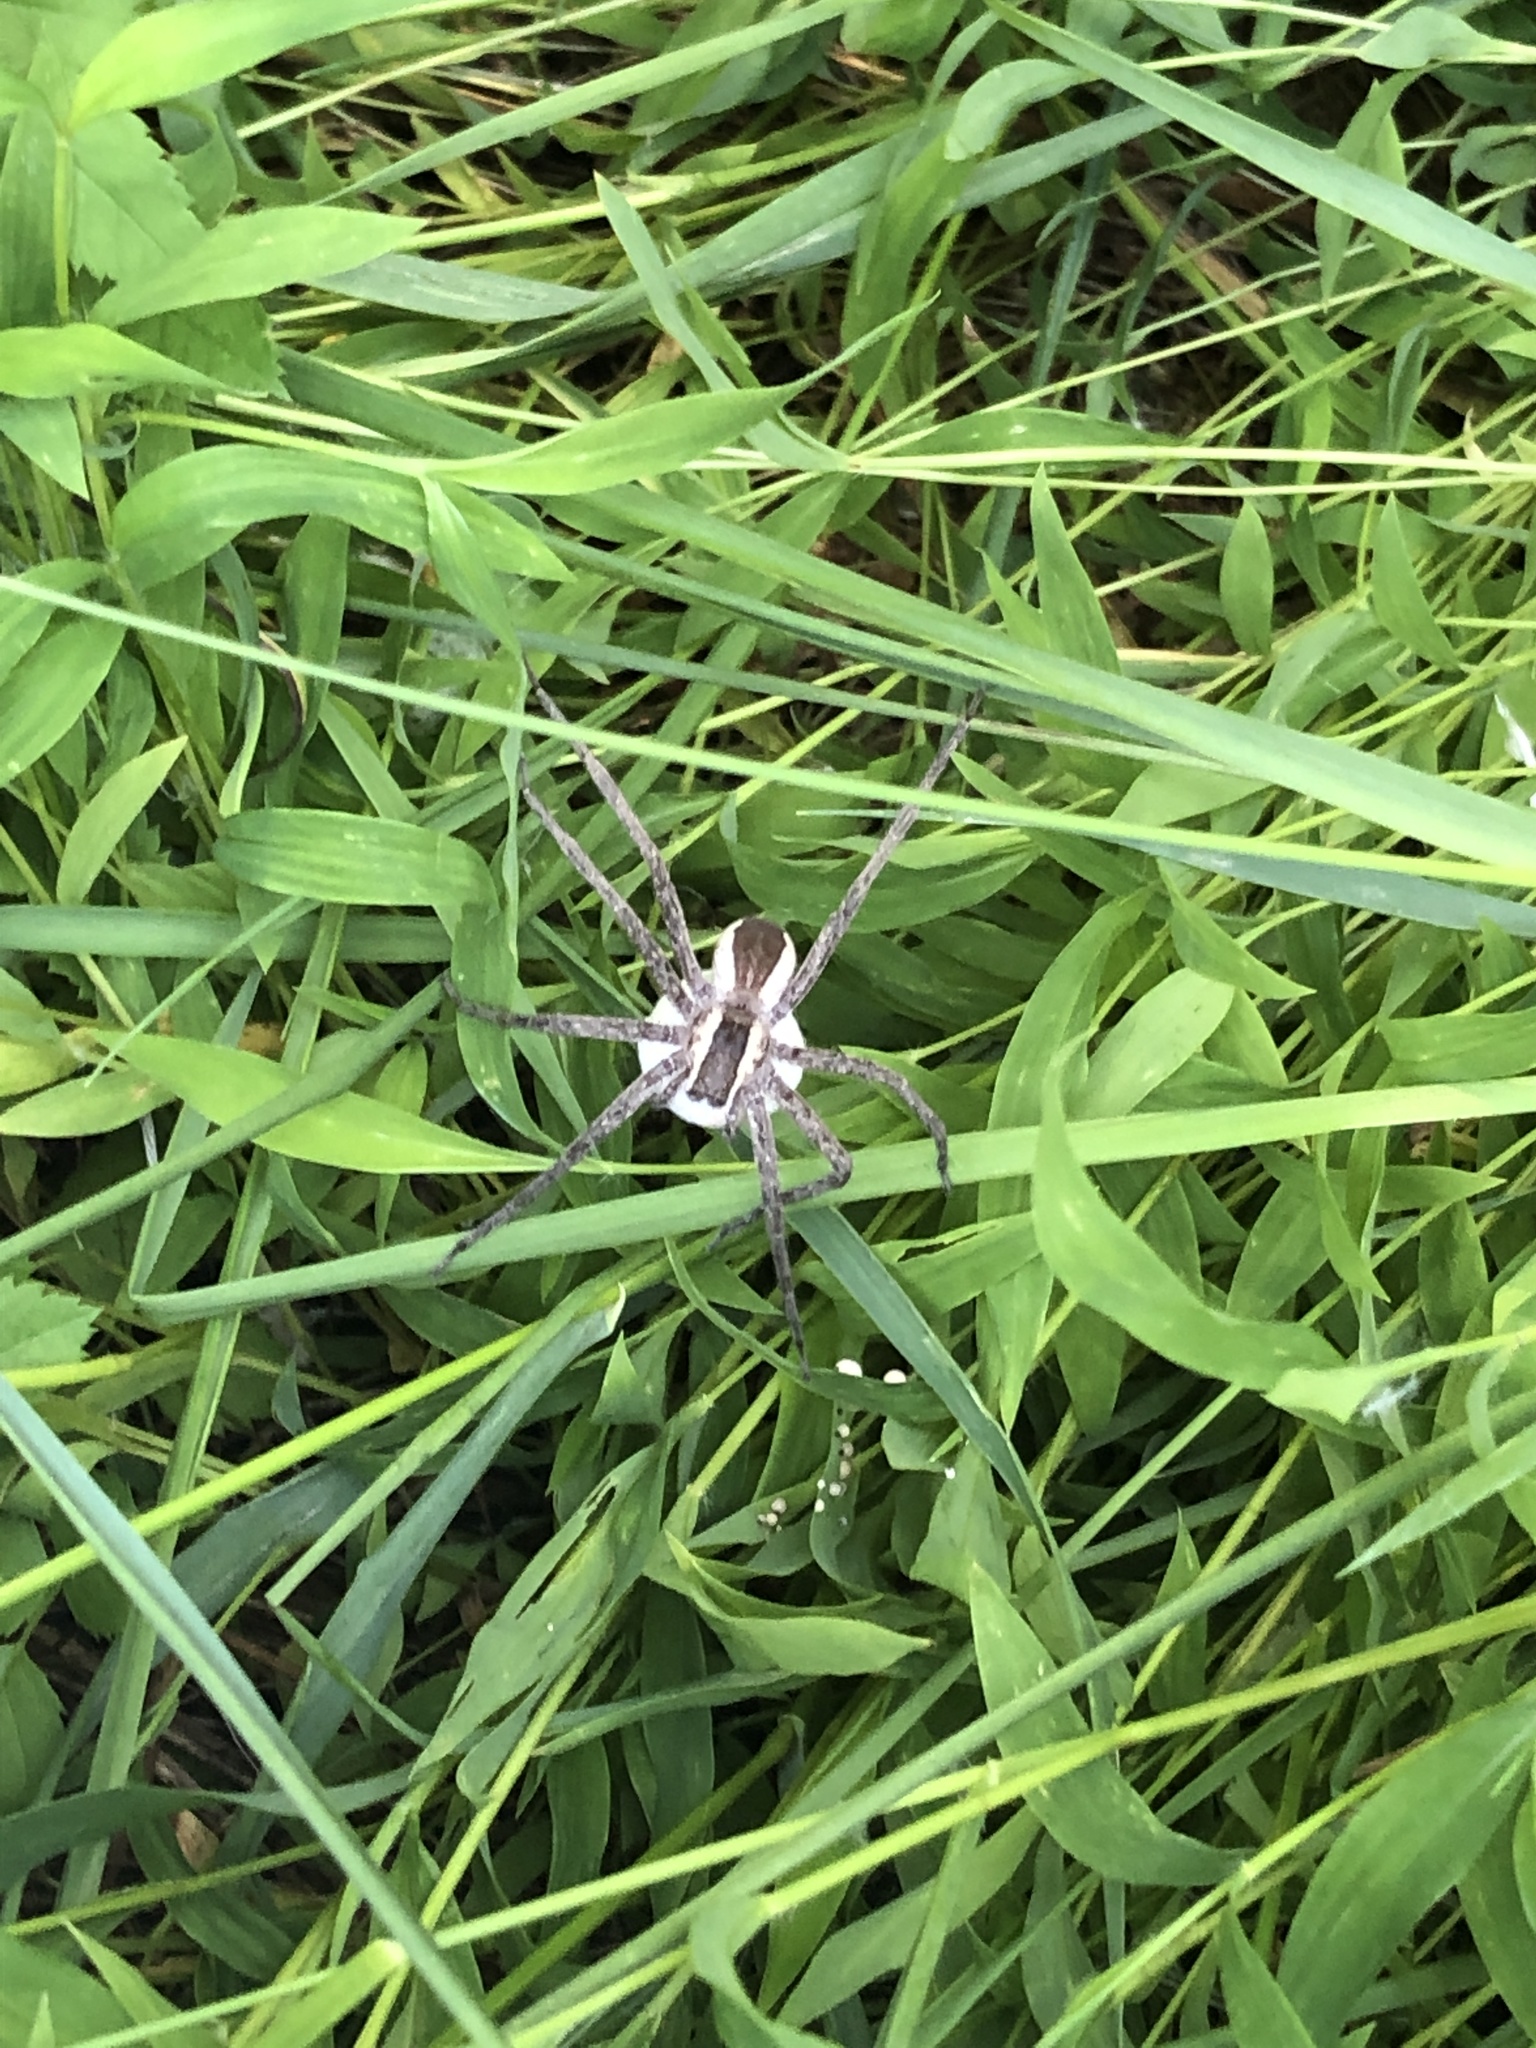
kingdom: Animalia
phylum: Arthropoda
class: Arachnida
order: Araneae
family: Pisauridae
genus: Pisaurina
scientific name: Pisaurina mira
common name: American nursery web spider
